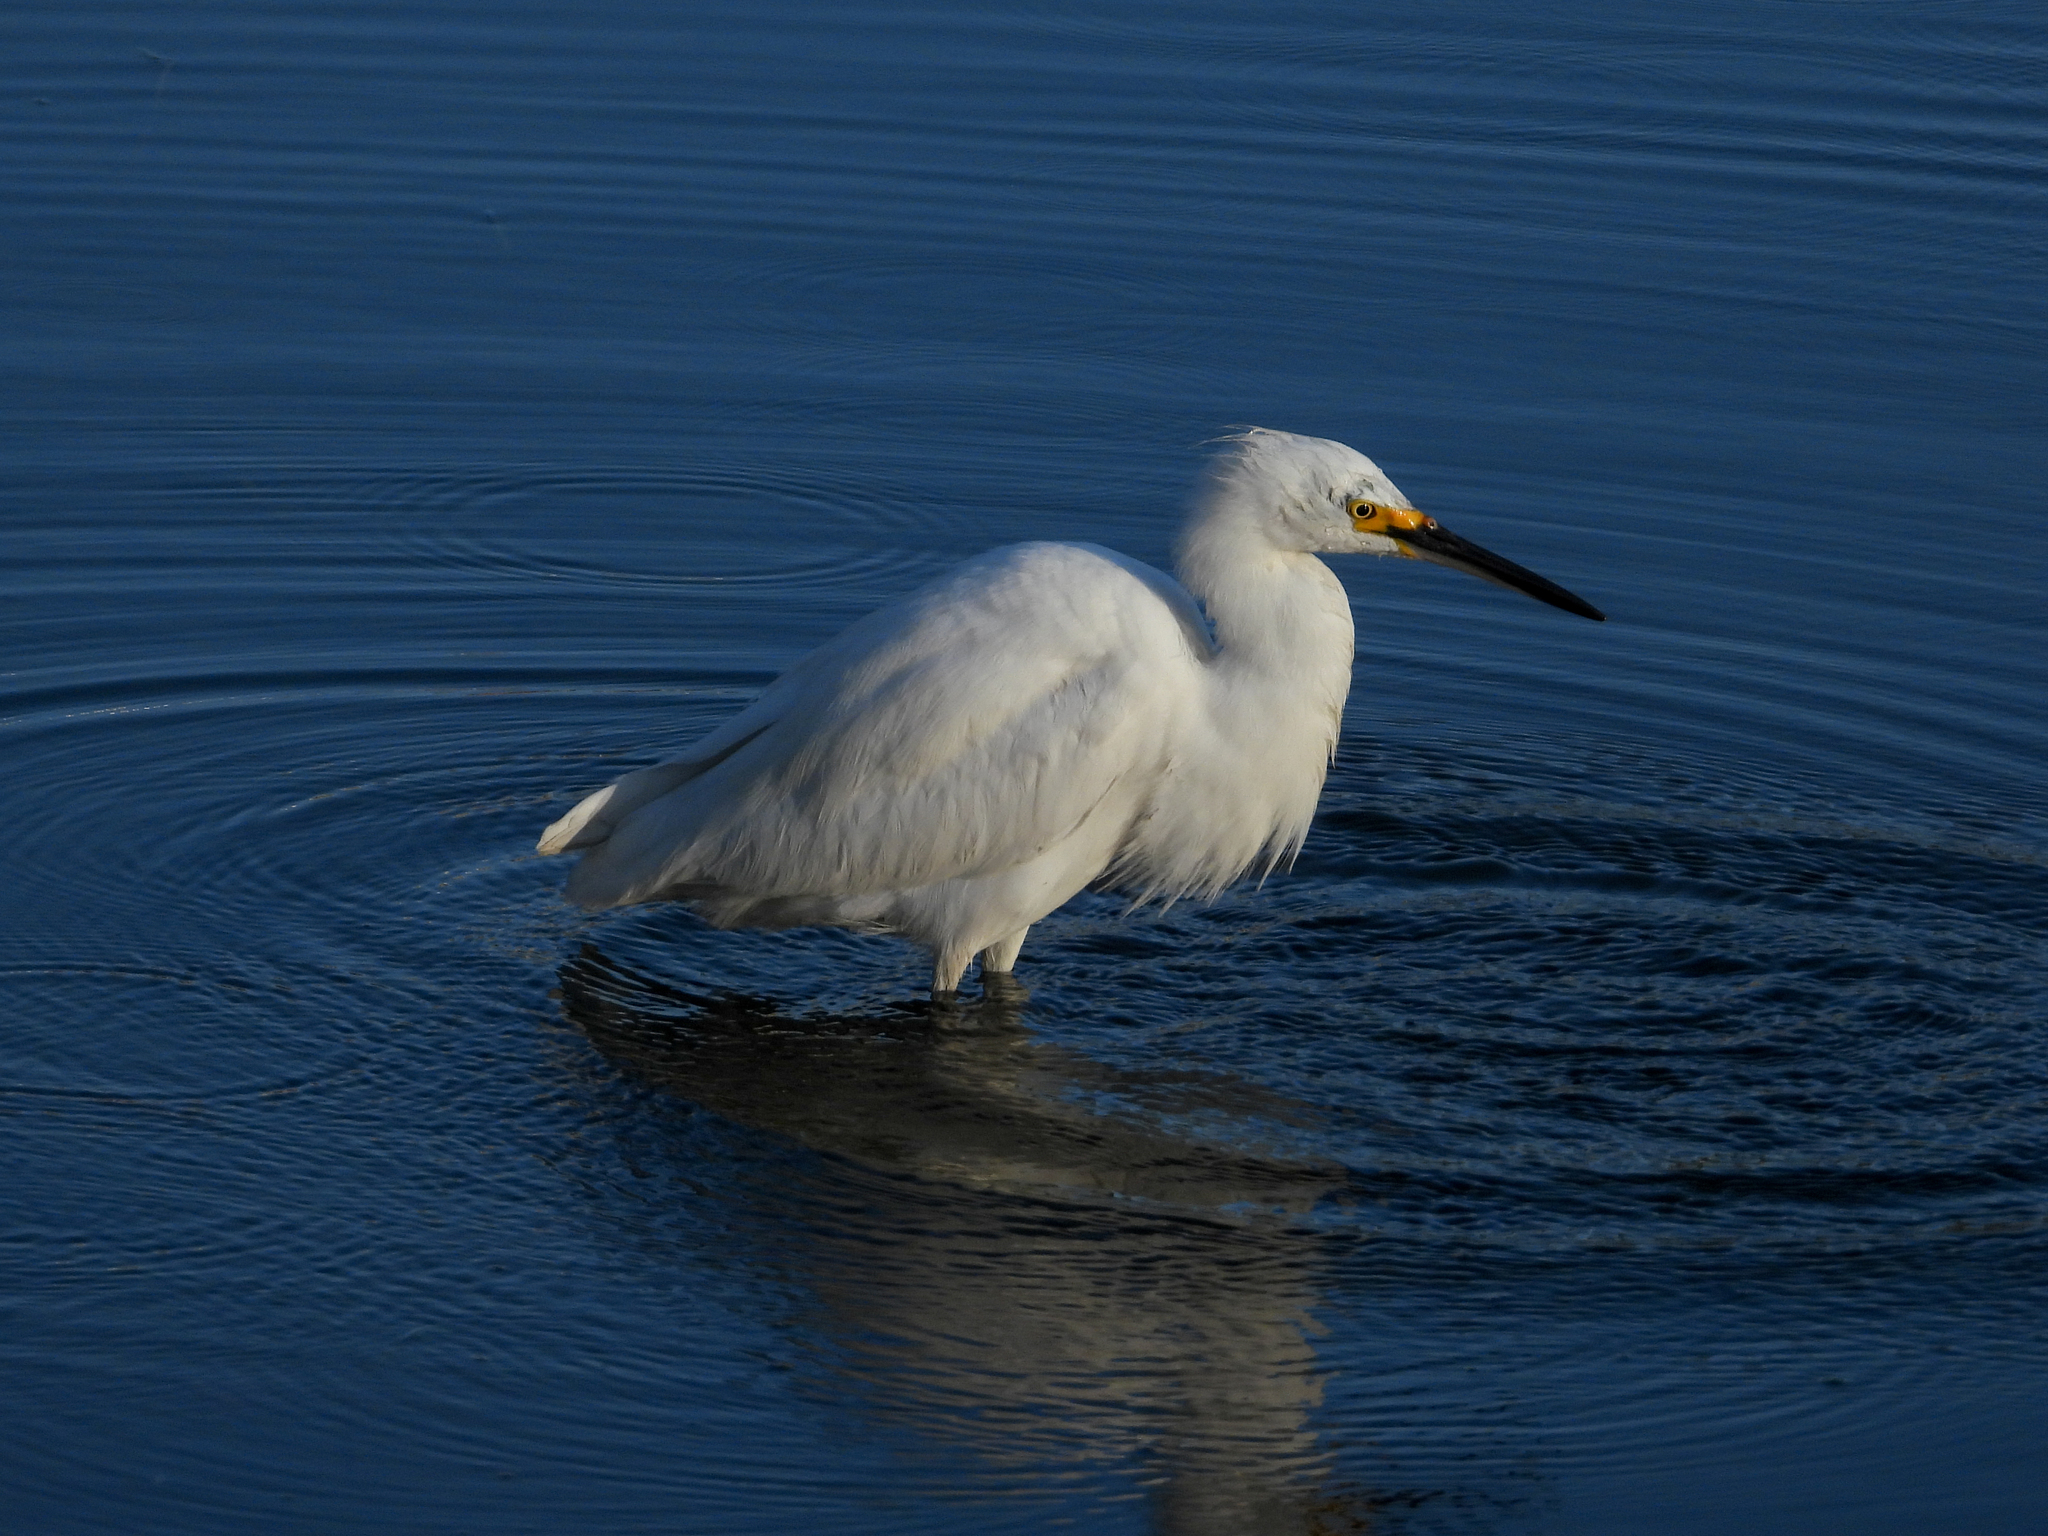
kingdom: Animalia
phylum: Chordata
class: Aves
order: Pelecaniformes
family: Ardeidae
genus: Egretta
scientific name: Egretta thula
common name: Snowy egret
